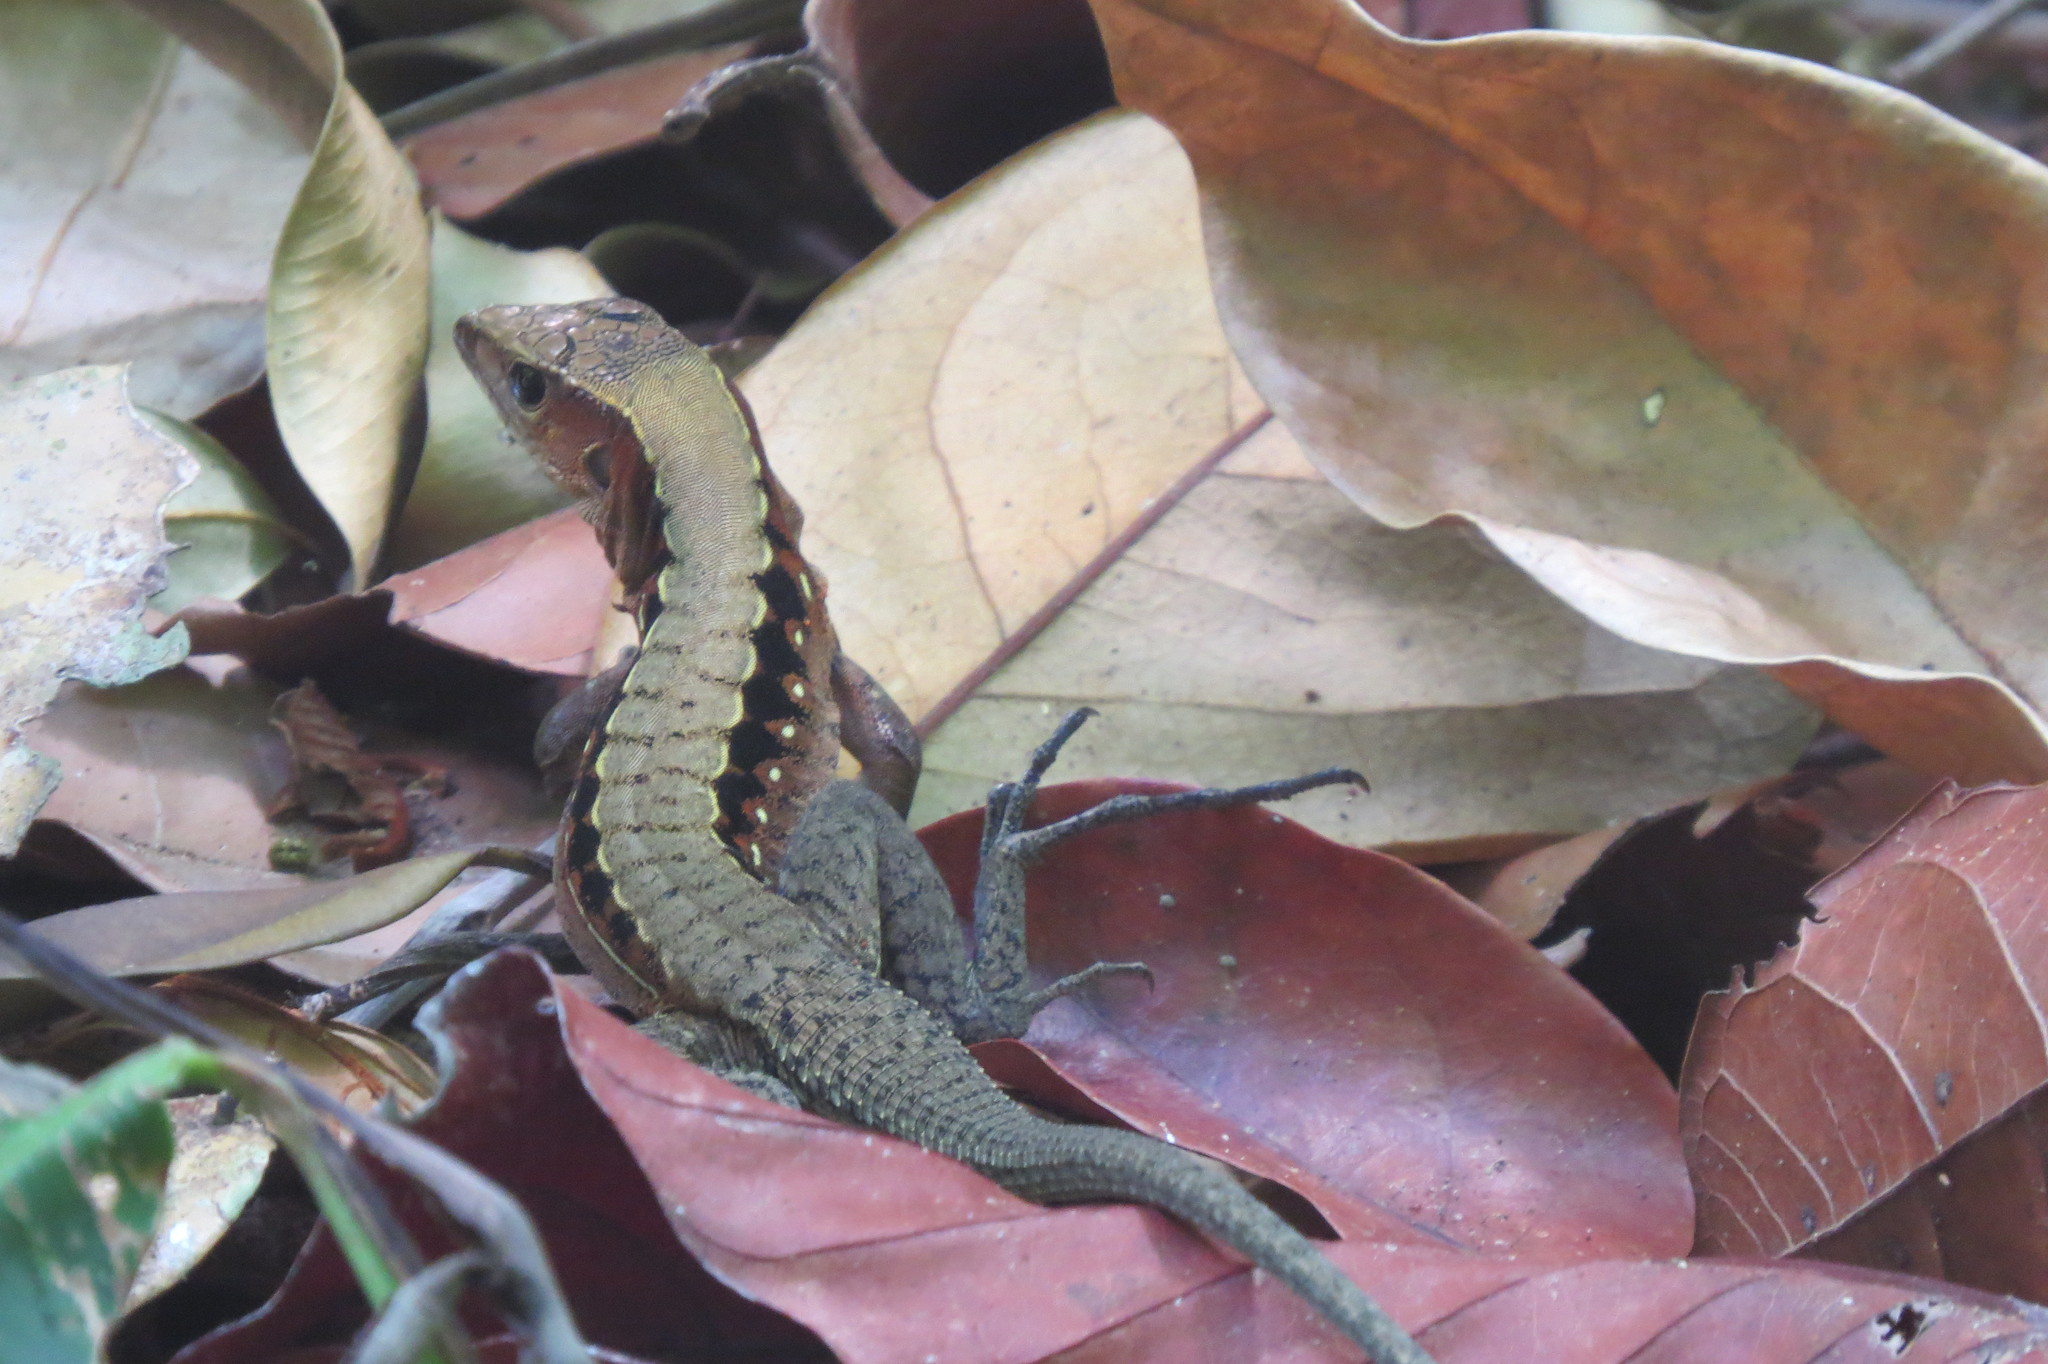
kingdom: Animalia
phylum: Chordata
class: Squamata
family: Teiidae
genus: Holcosus
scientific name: Holcosus leptophrys
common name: Delicate ameiva
